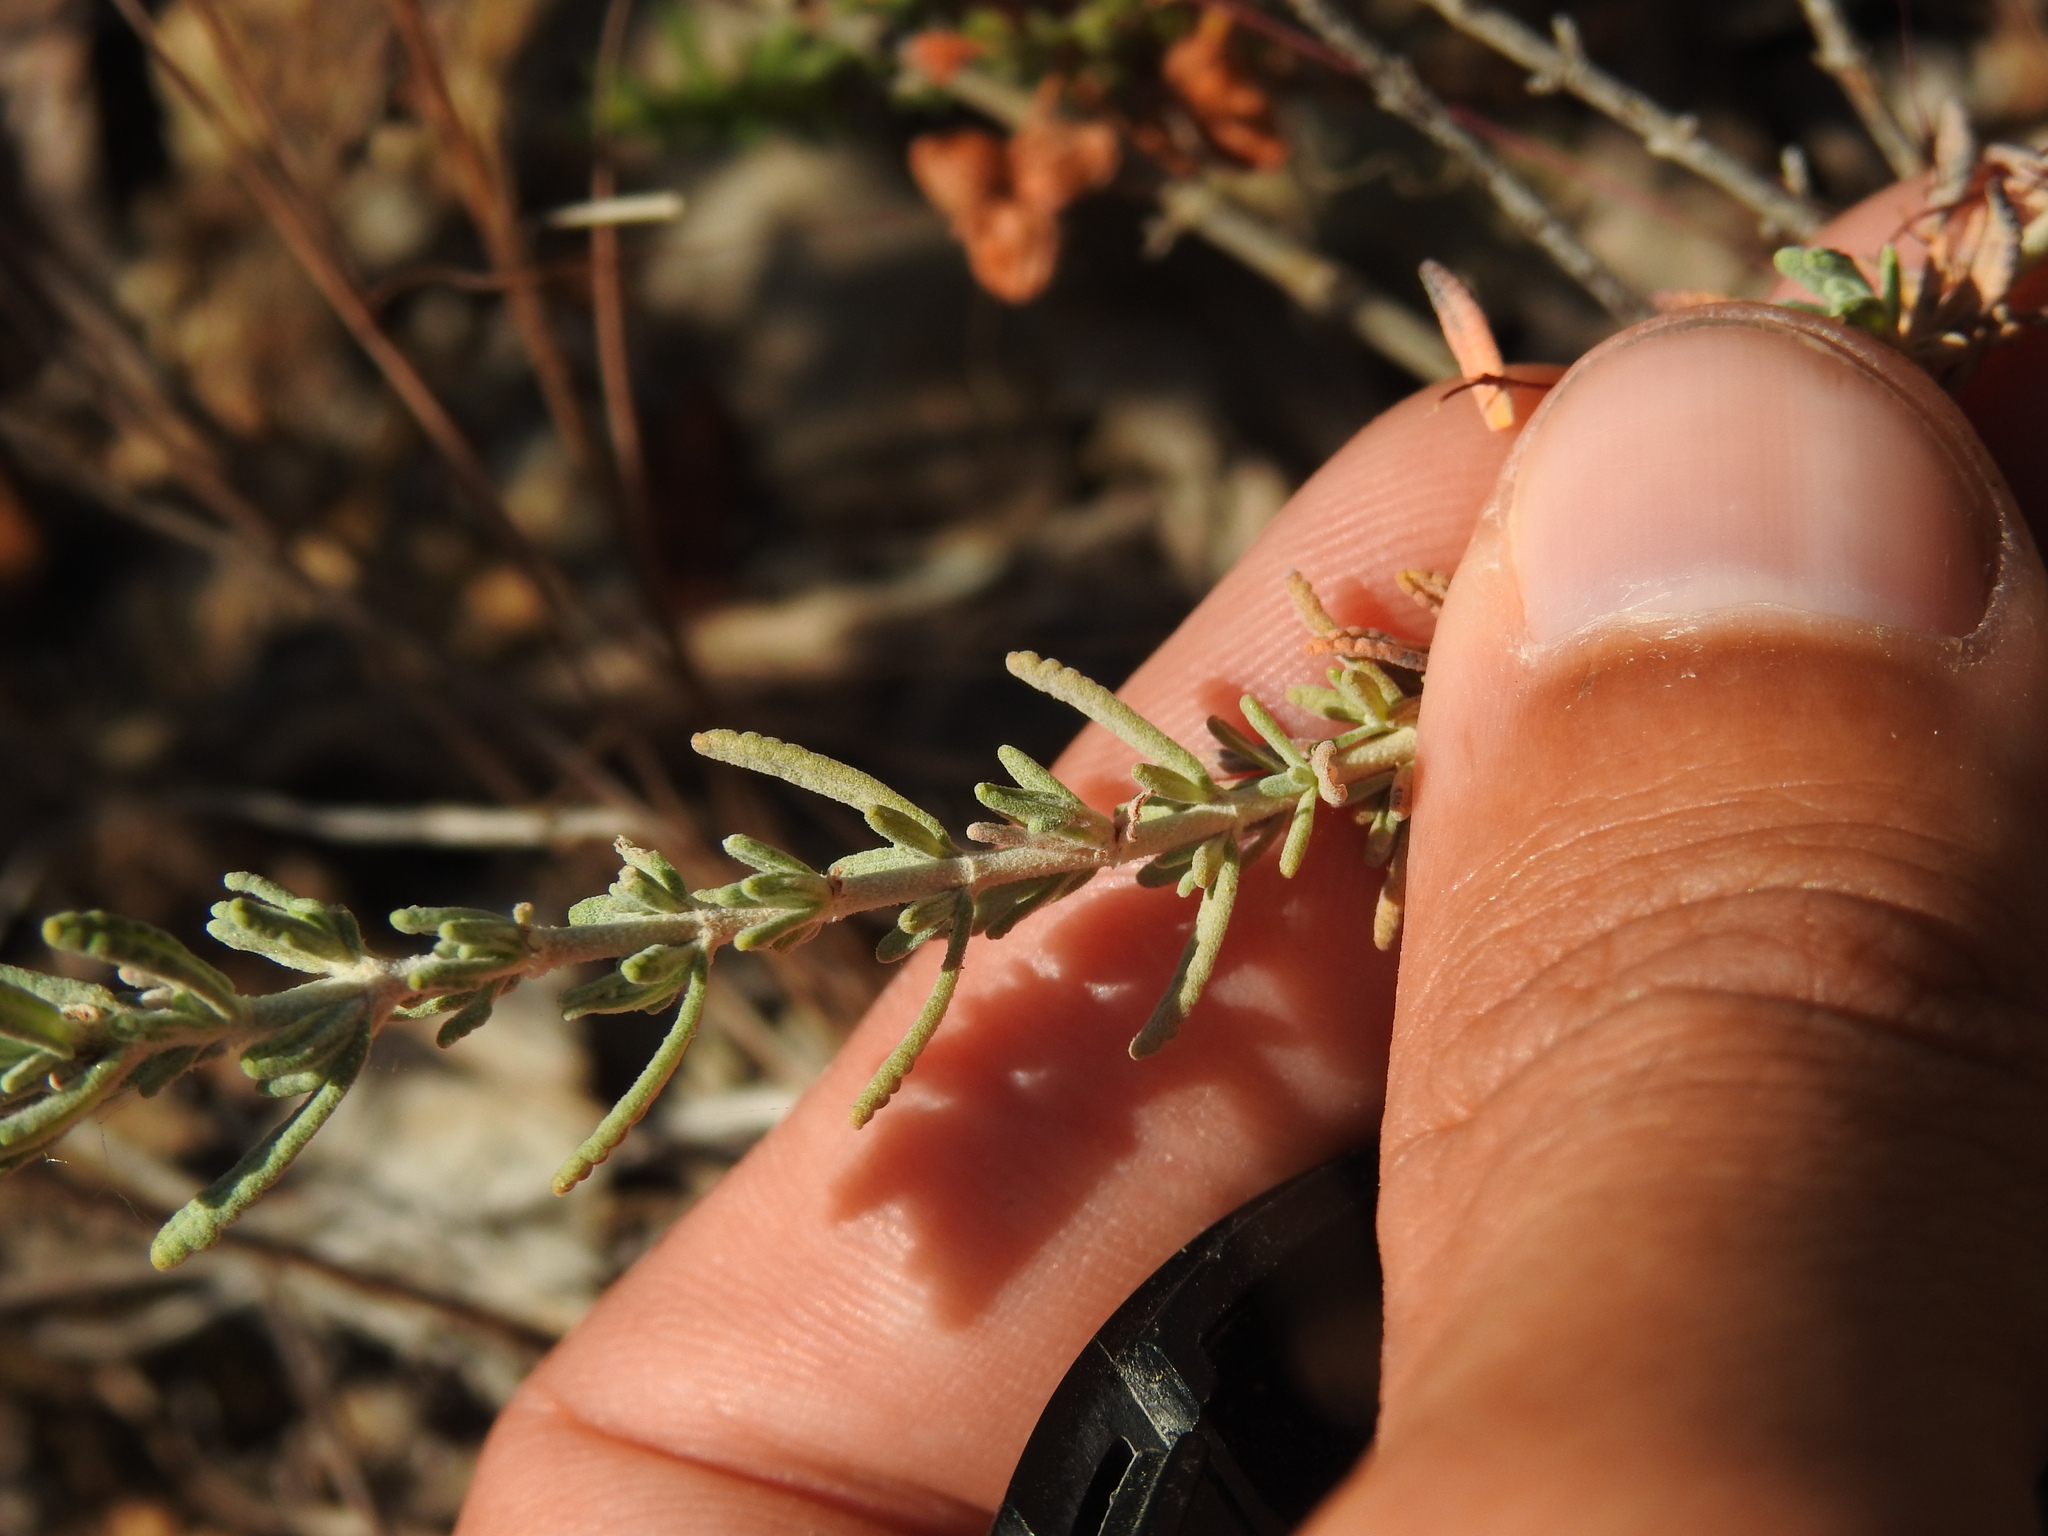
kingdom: Plantae
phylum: Tracheophyta
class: Magnoliopsida
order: Lamiales
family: Lamiaceae
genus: Teucrium
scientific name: Teucrium capitatum
